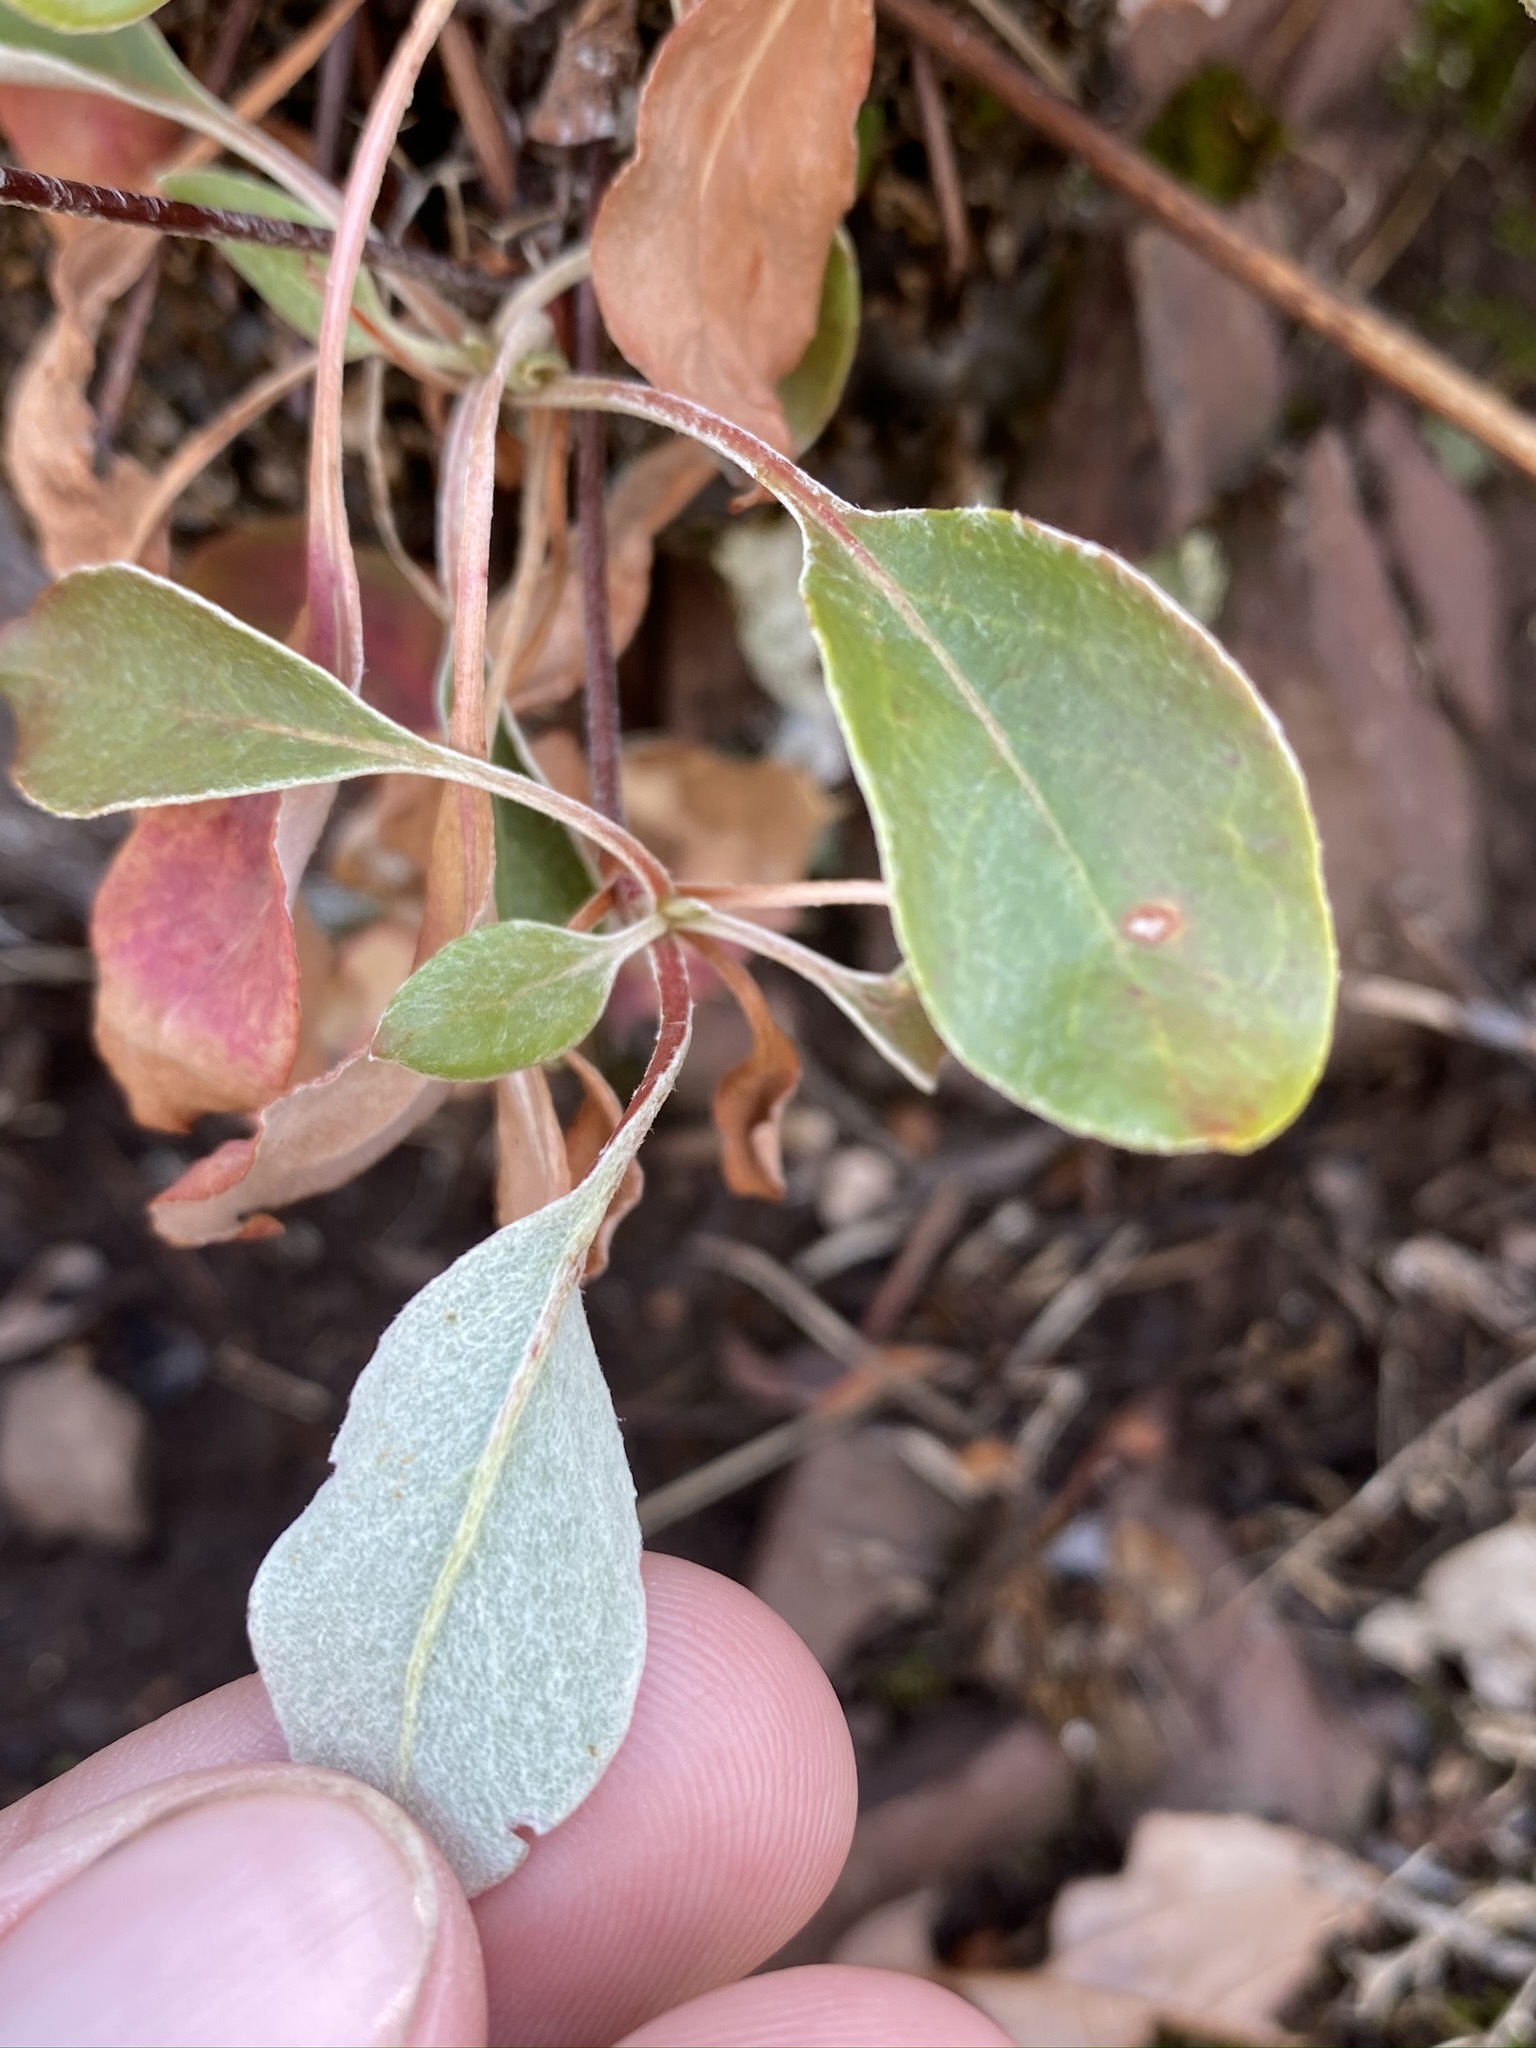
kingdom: Plantae
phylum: Tracheophyta
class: Magnoliopsida
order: Caryophyllales
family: Polygonaceae
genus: Eriogonum
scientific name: Eriogonum umbellatum
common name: Sulfur-buckwheat
